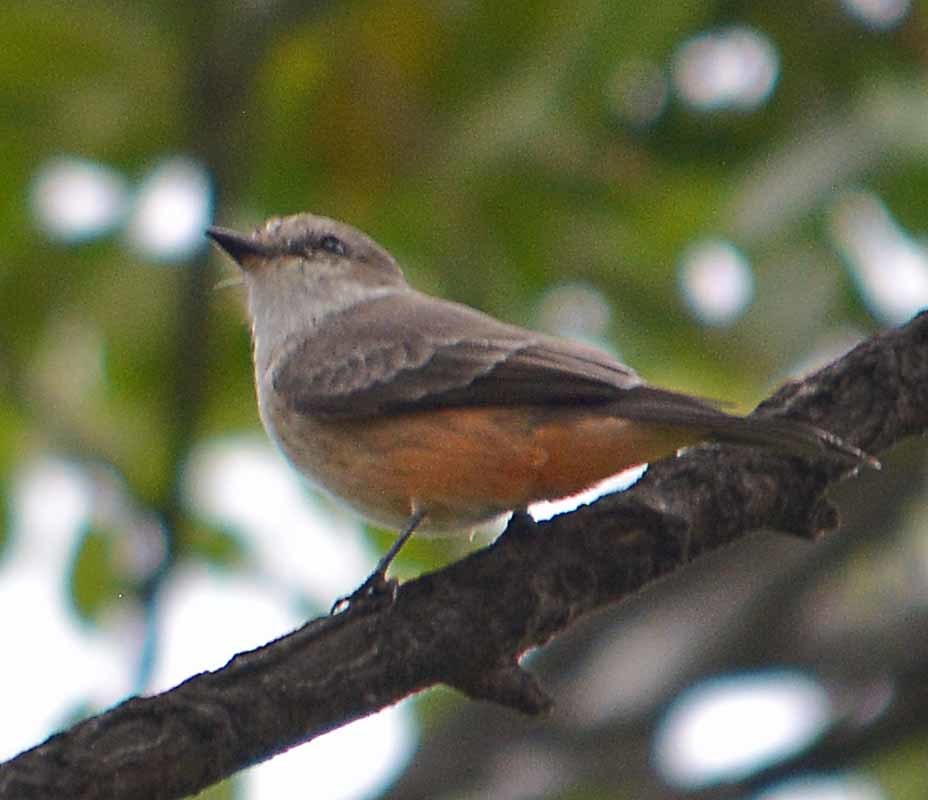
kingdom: Animalia
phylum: Chordata
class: Aves
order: Passeriformes
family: Tyrannidae
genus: Pyrocephalus
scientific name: Pyrocephalus rubinus
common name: Vermilion flycatcher
